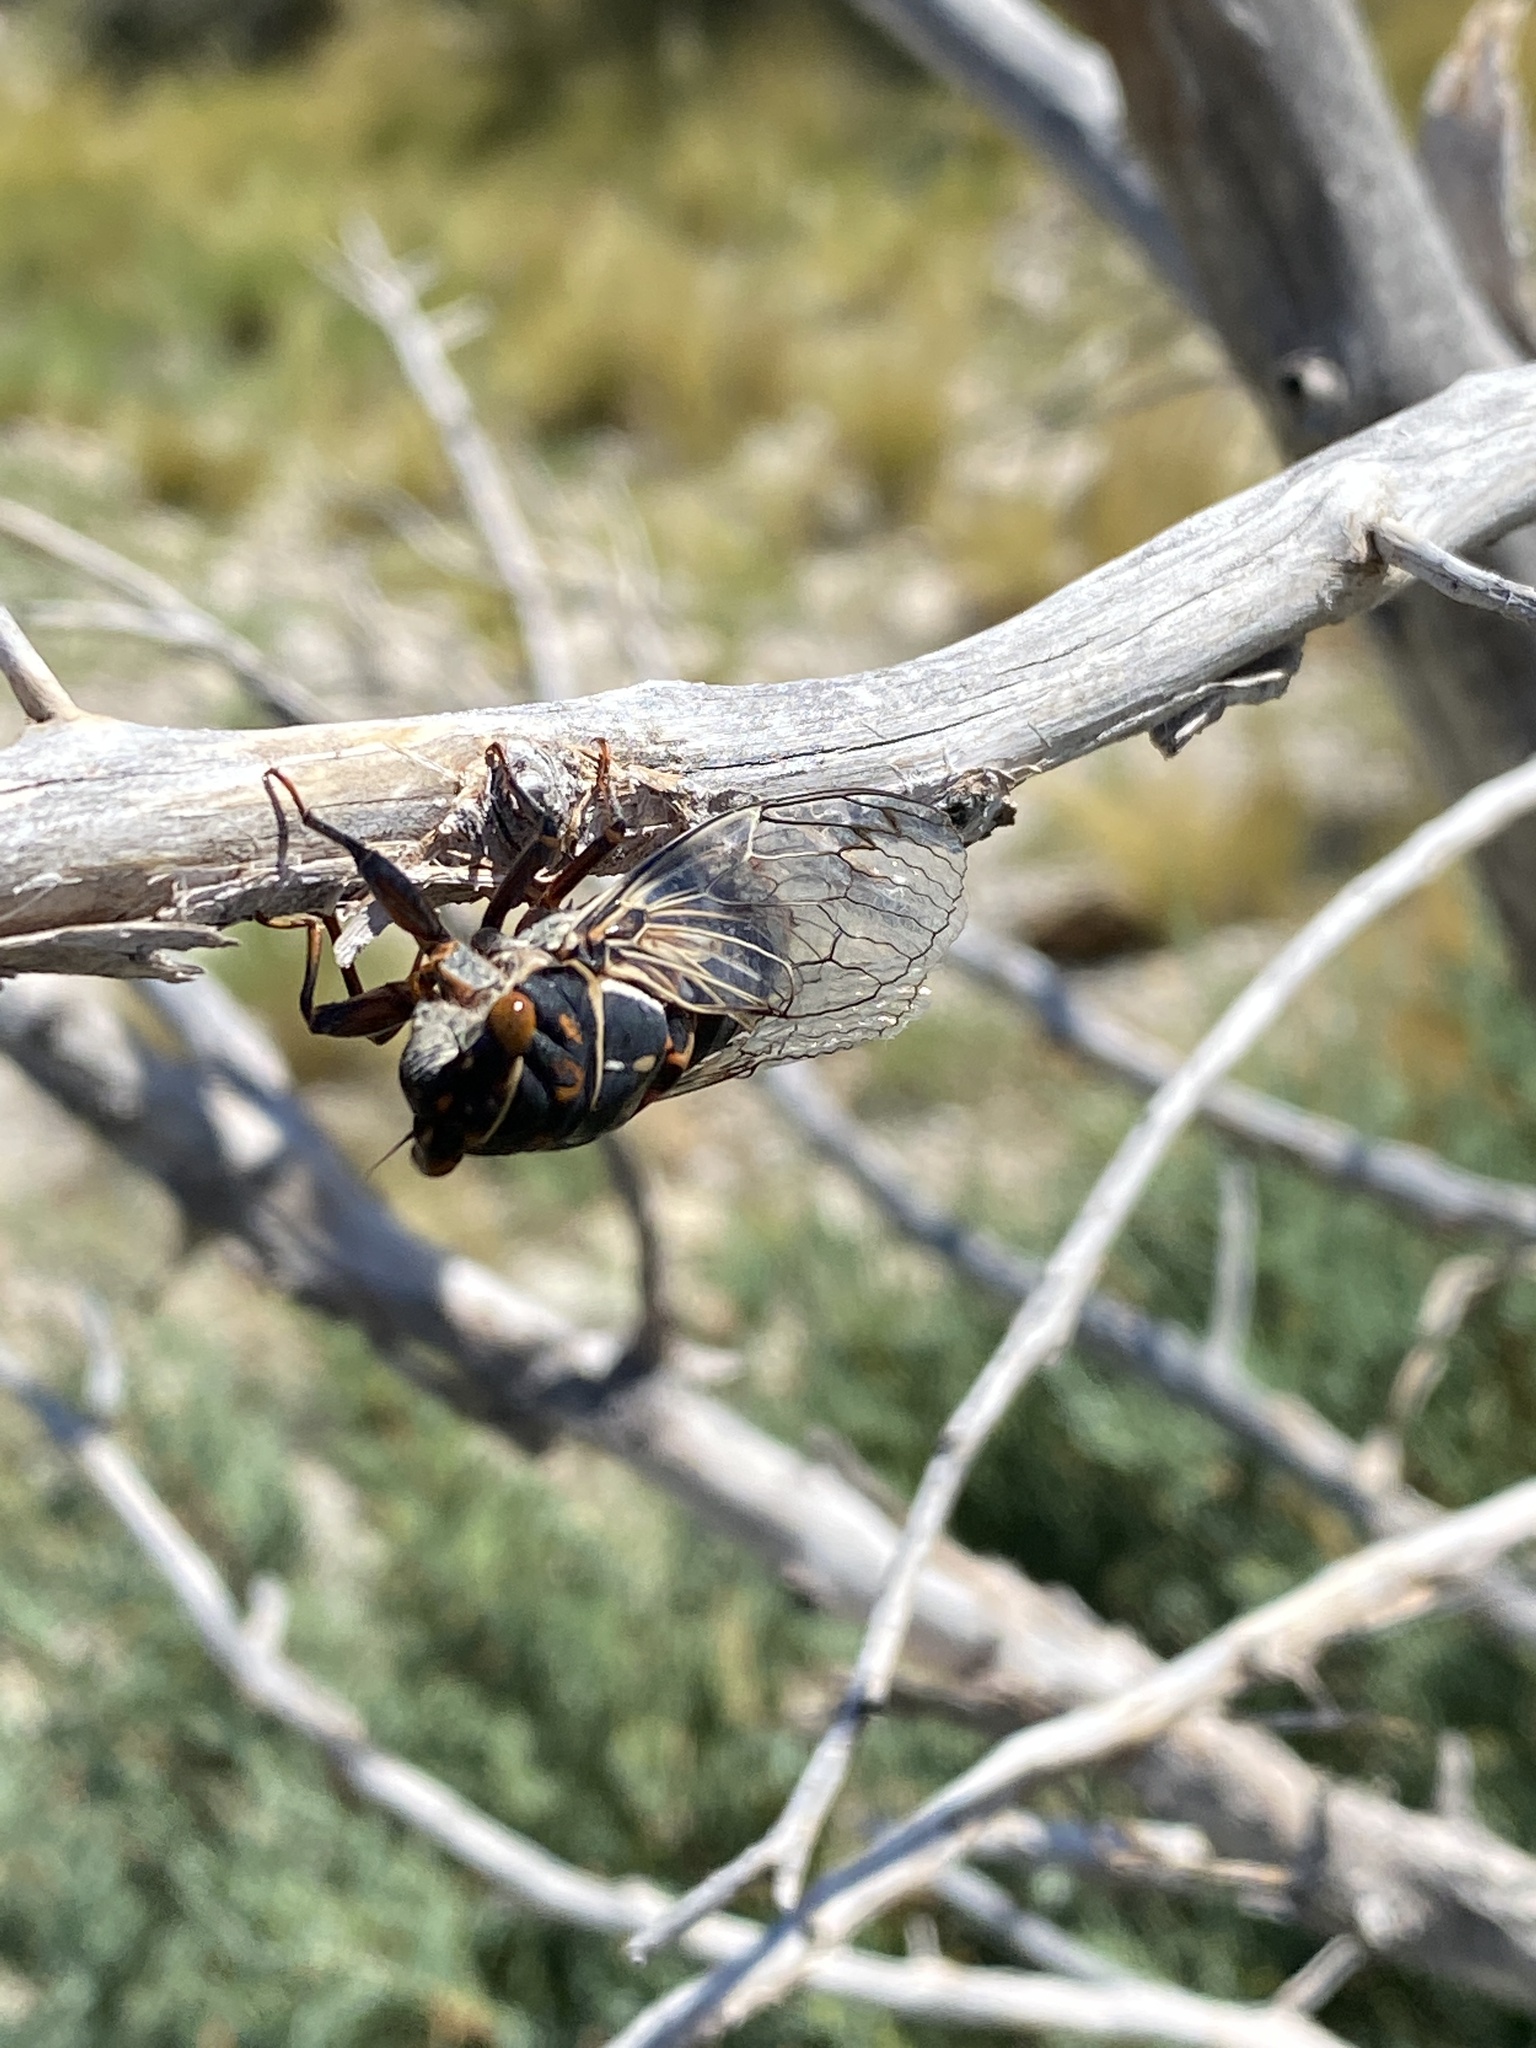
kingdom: Animalia
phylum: Arthropoda
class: Insecta
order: Hemiptera
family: Cicadidae
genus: Hadoa
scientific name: Hadoa duryi
